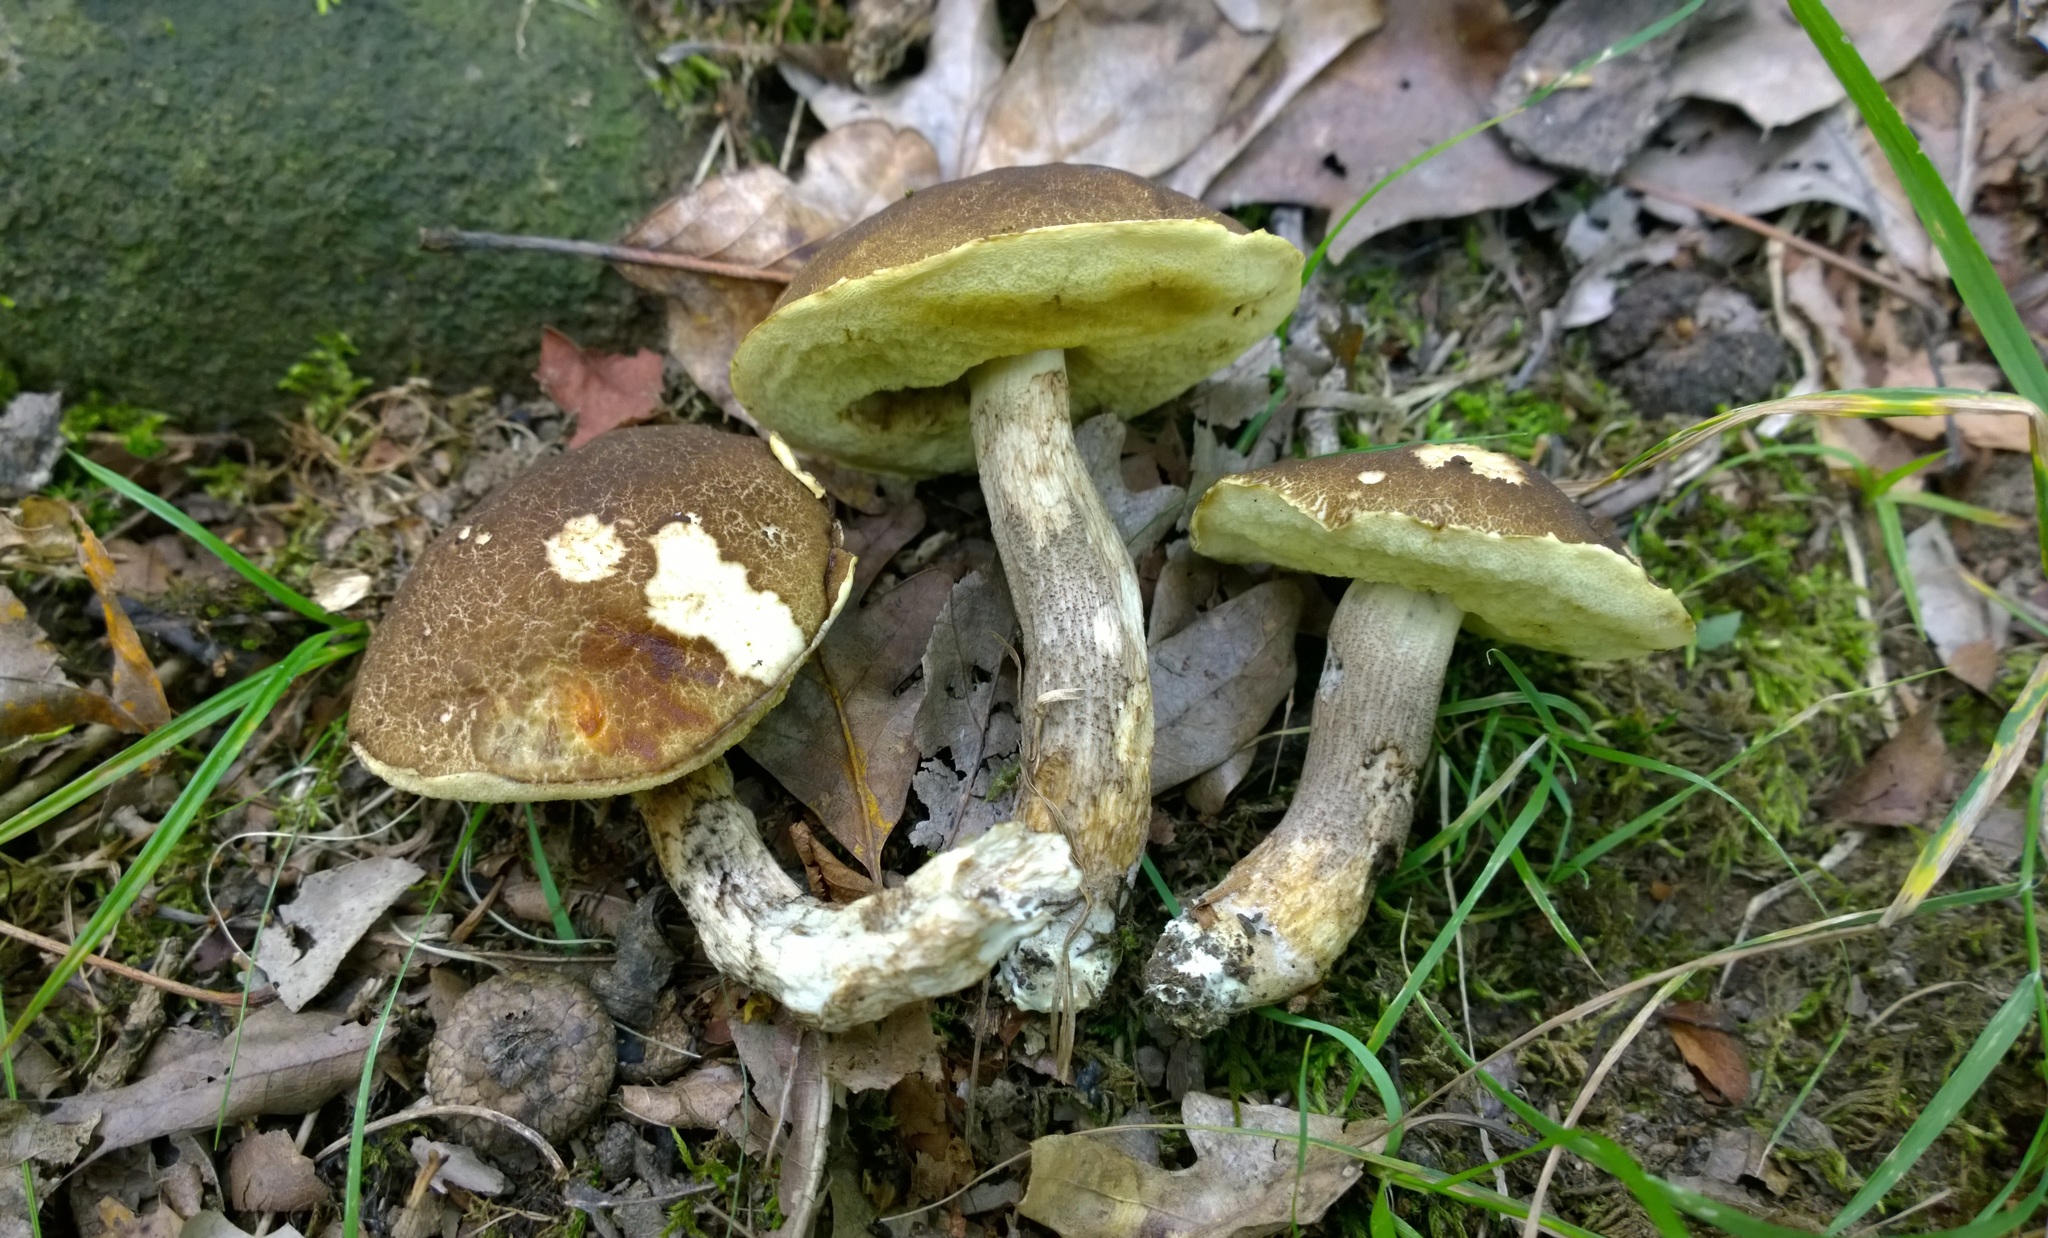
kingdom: Fungi
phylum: Basidiomycota
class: Agaricomycetes
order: Boletales
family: Boletaceae
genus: Leccinellum
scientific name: Leccinellum rugosiceps
